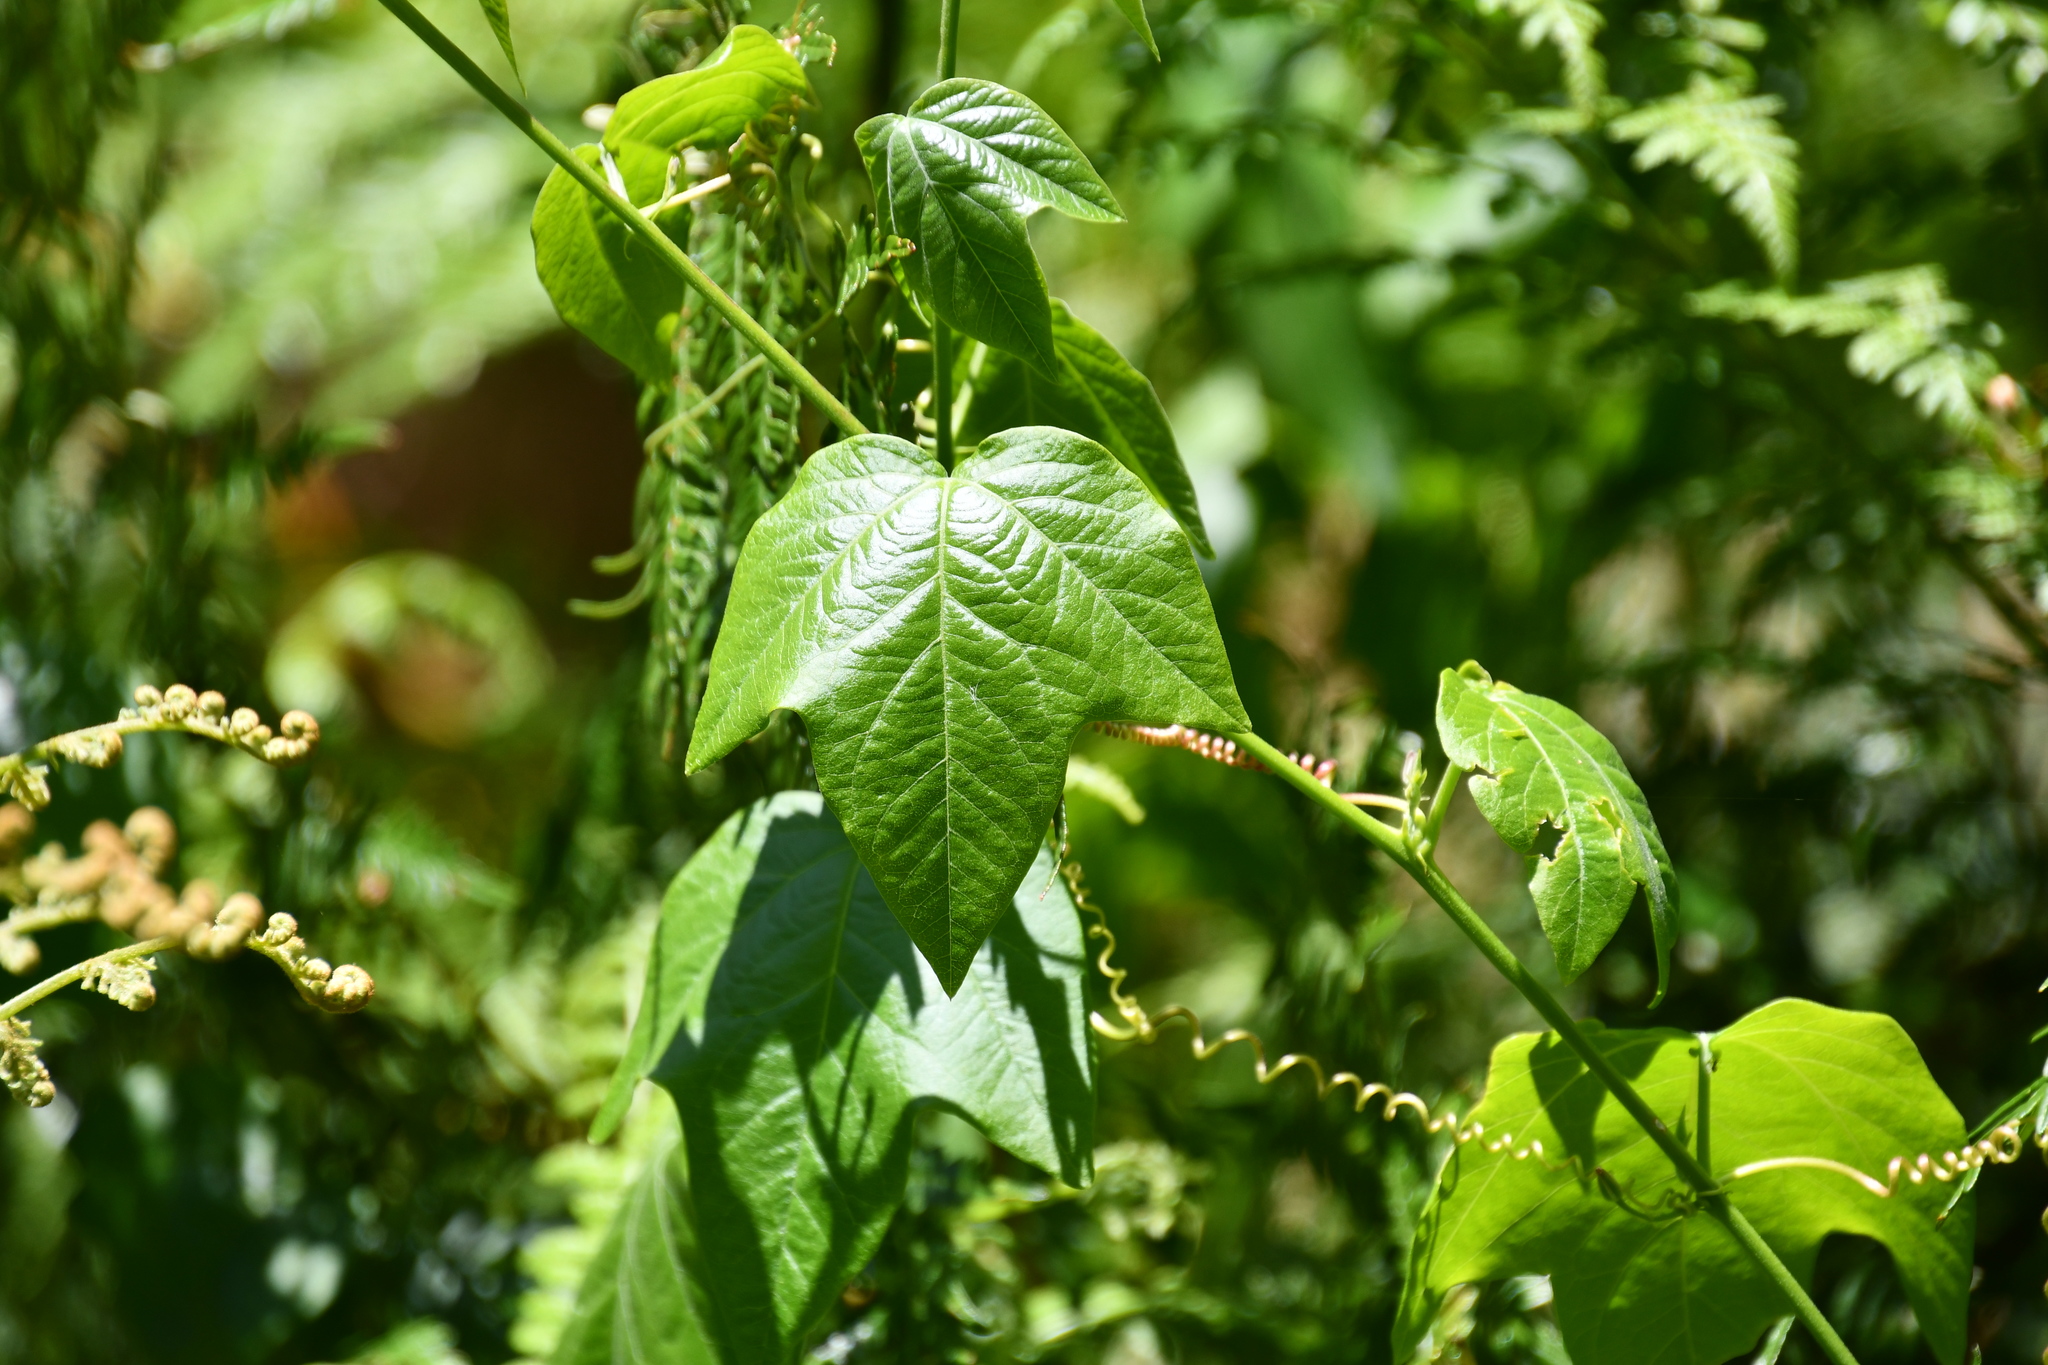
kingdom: Plantae
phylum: Tracheophyta
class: Magnoliopsida
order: Malpighiales
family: Passifloraceae
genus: Passiflora
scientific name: Passiflora herbertiana
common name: Yellow passionflower
